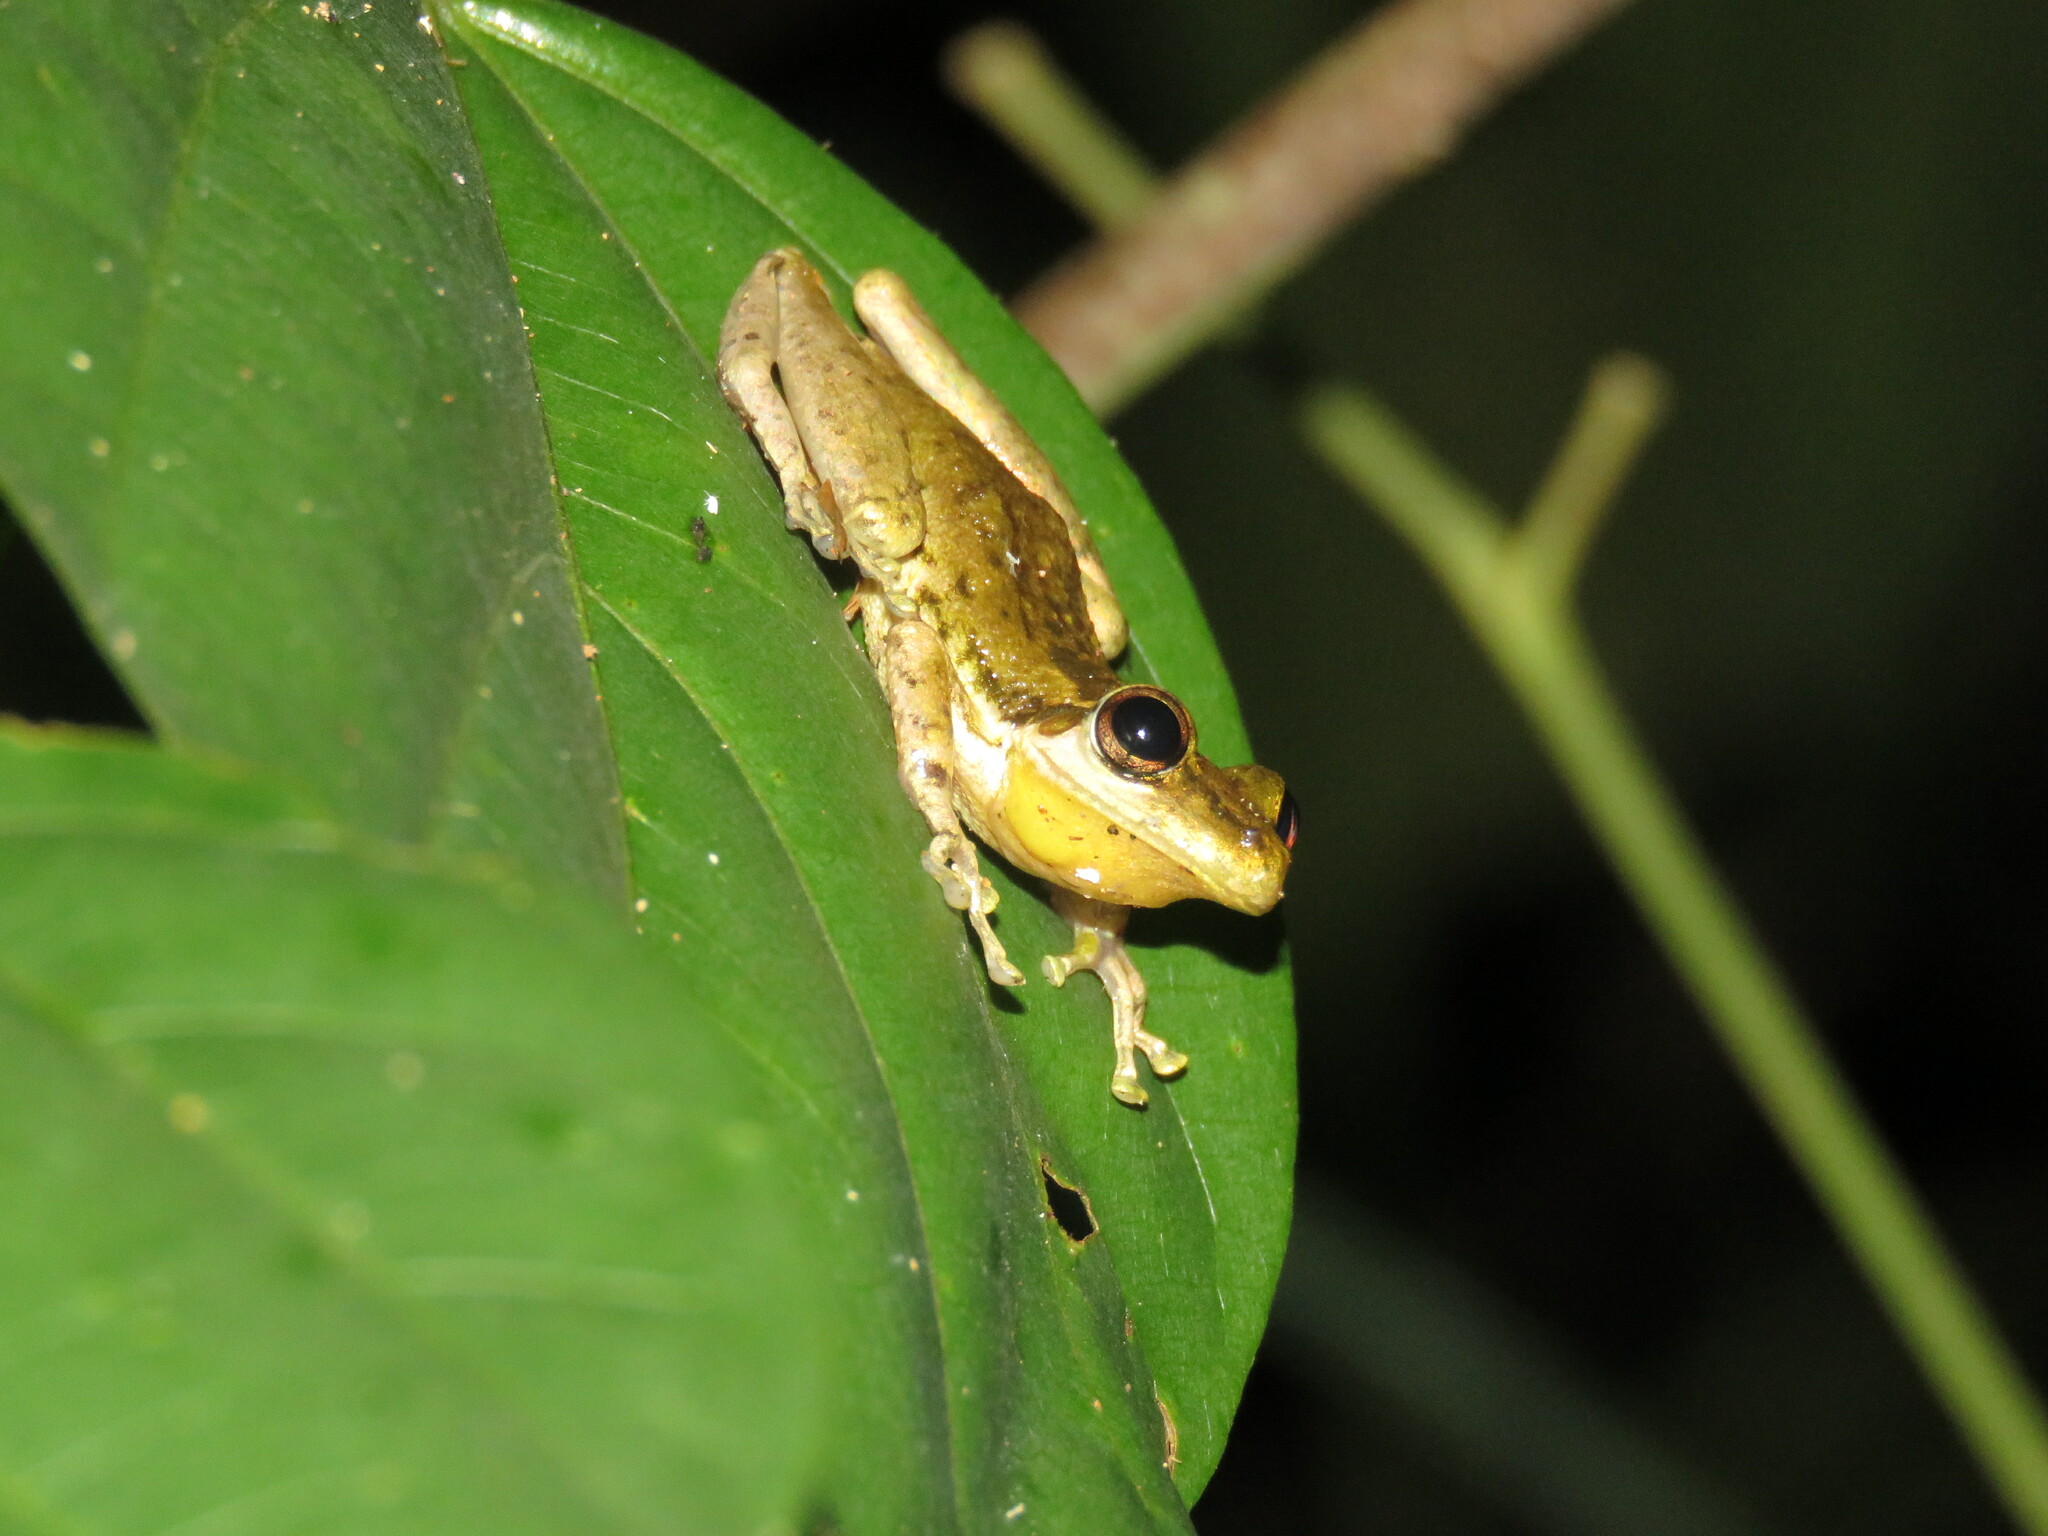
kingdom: Animalia
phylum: Chordata
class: Amphibia
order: Anura
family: Hylidae
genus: Scinax
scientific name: Scinax ruber
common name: Red snouted treefrog
